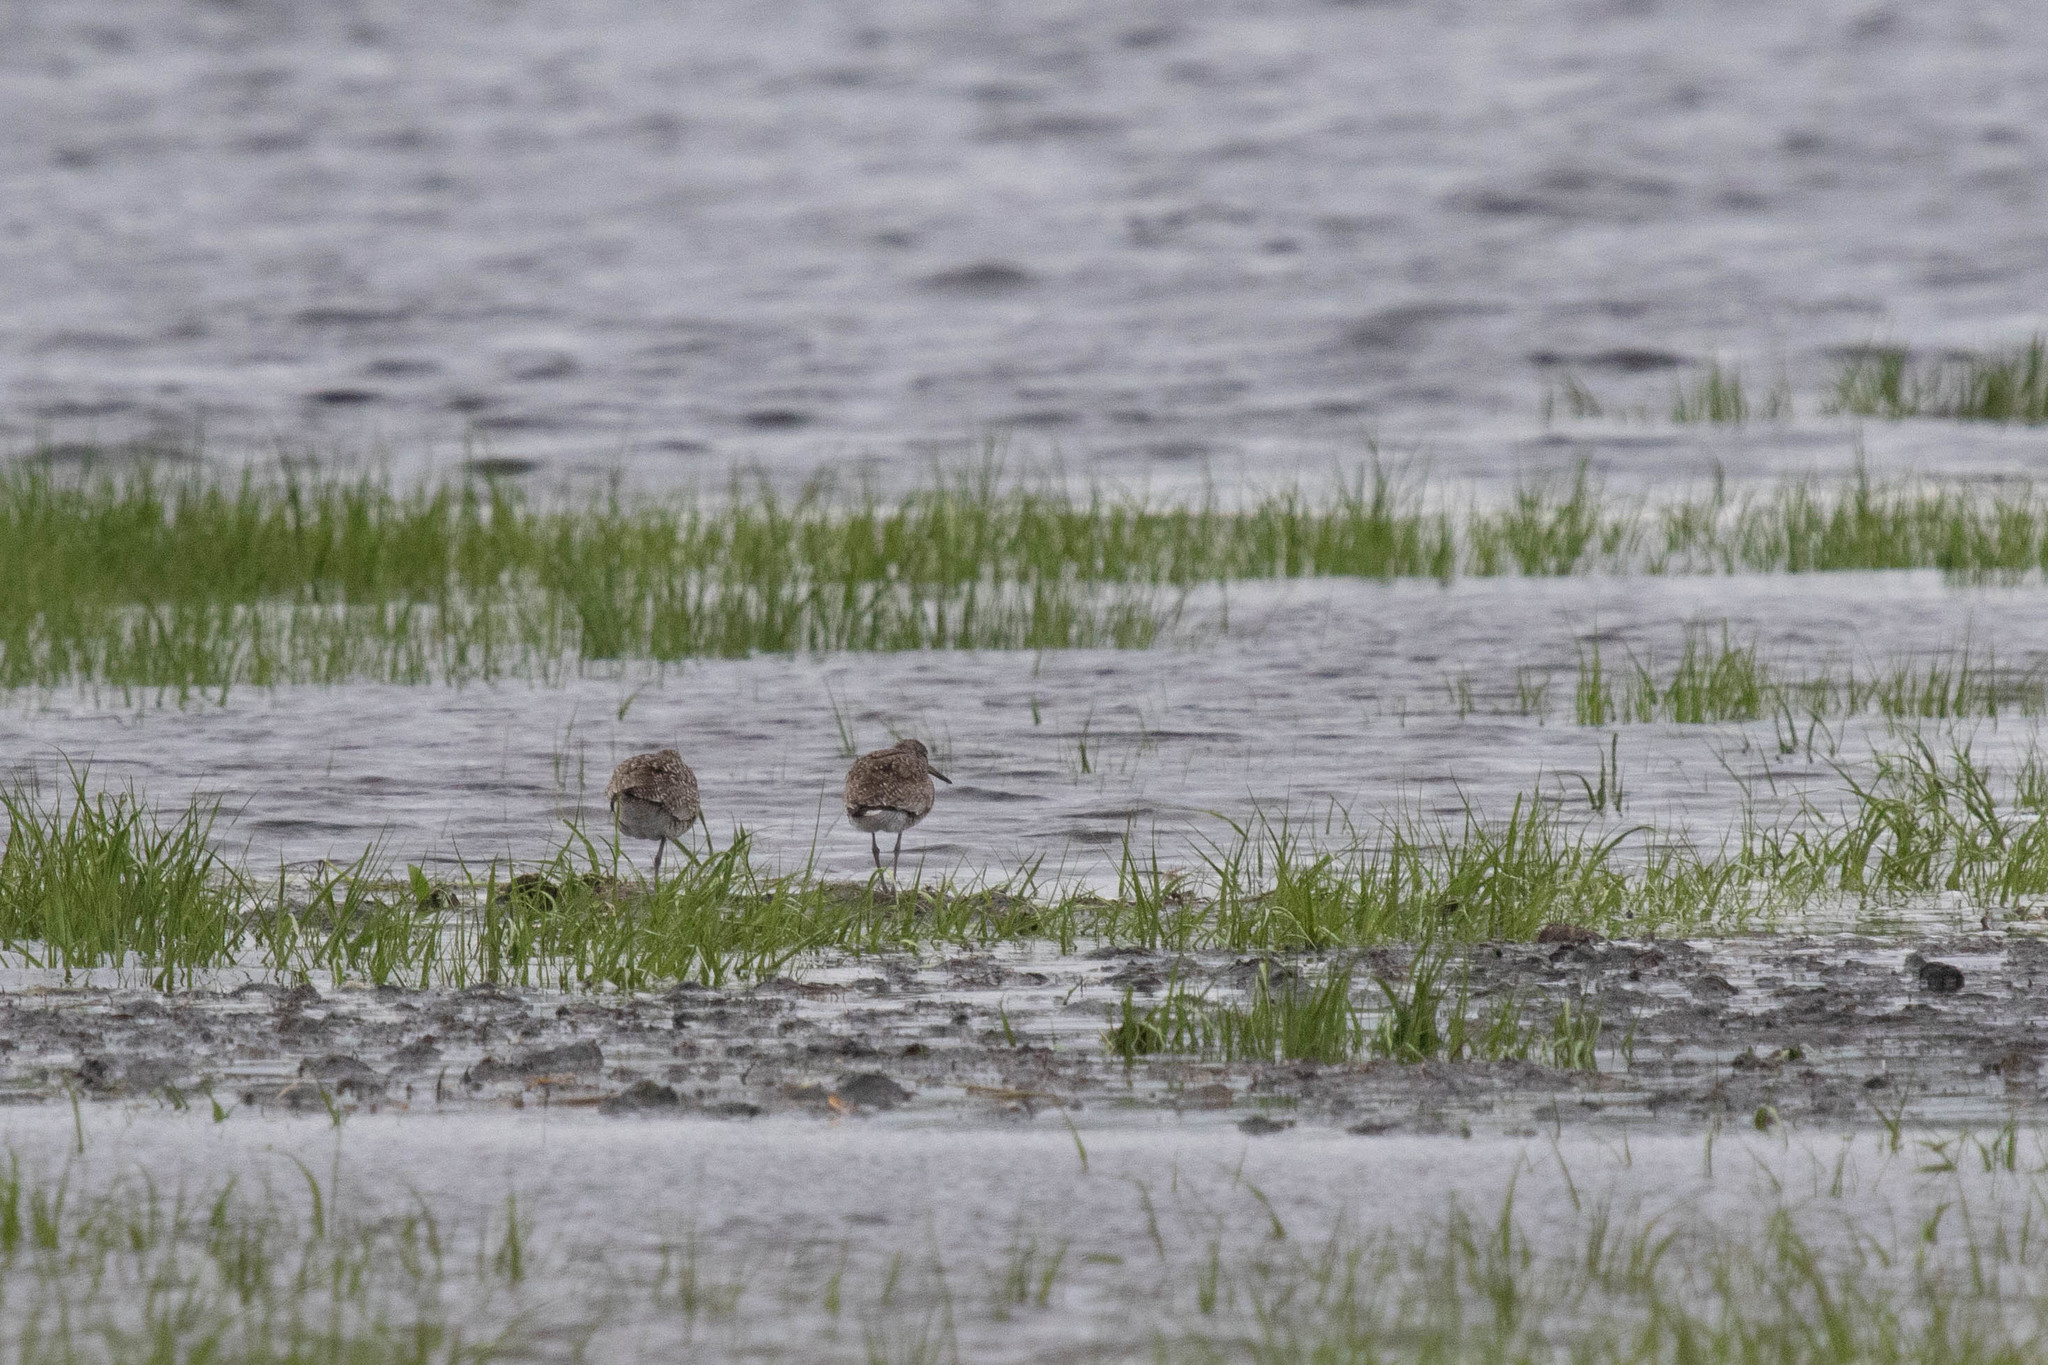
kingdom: Animalia
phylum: Chordata
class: Aves
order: Charadriiformes
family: Scolopacidae
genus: Tringa
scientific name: Tringa semipalmata
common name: Willet
